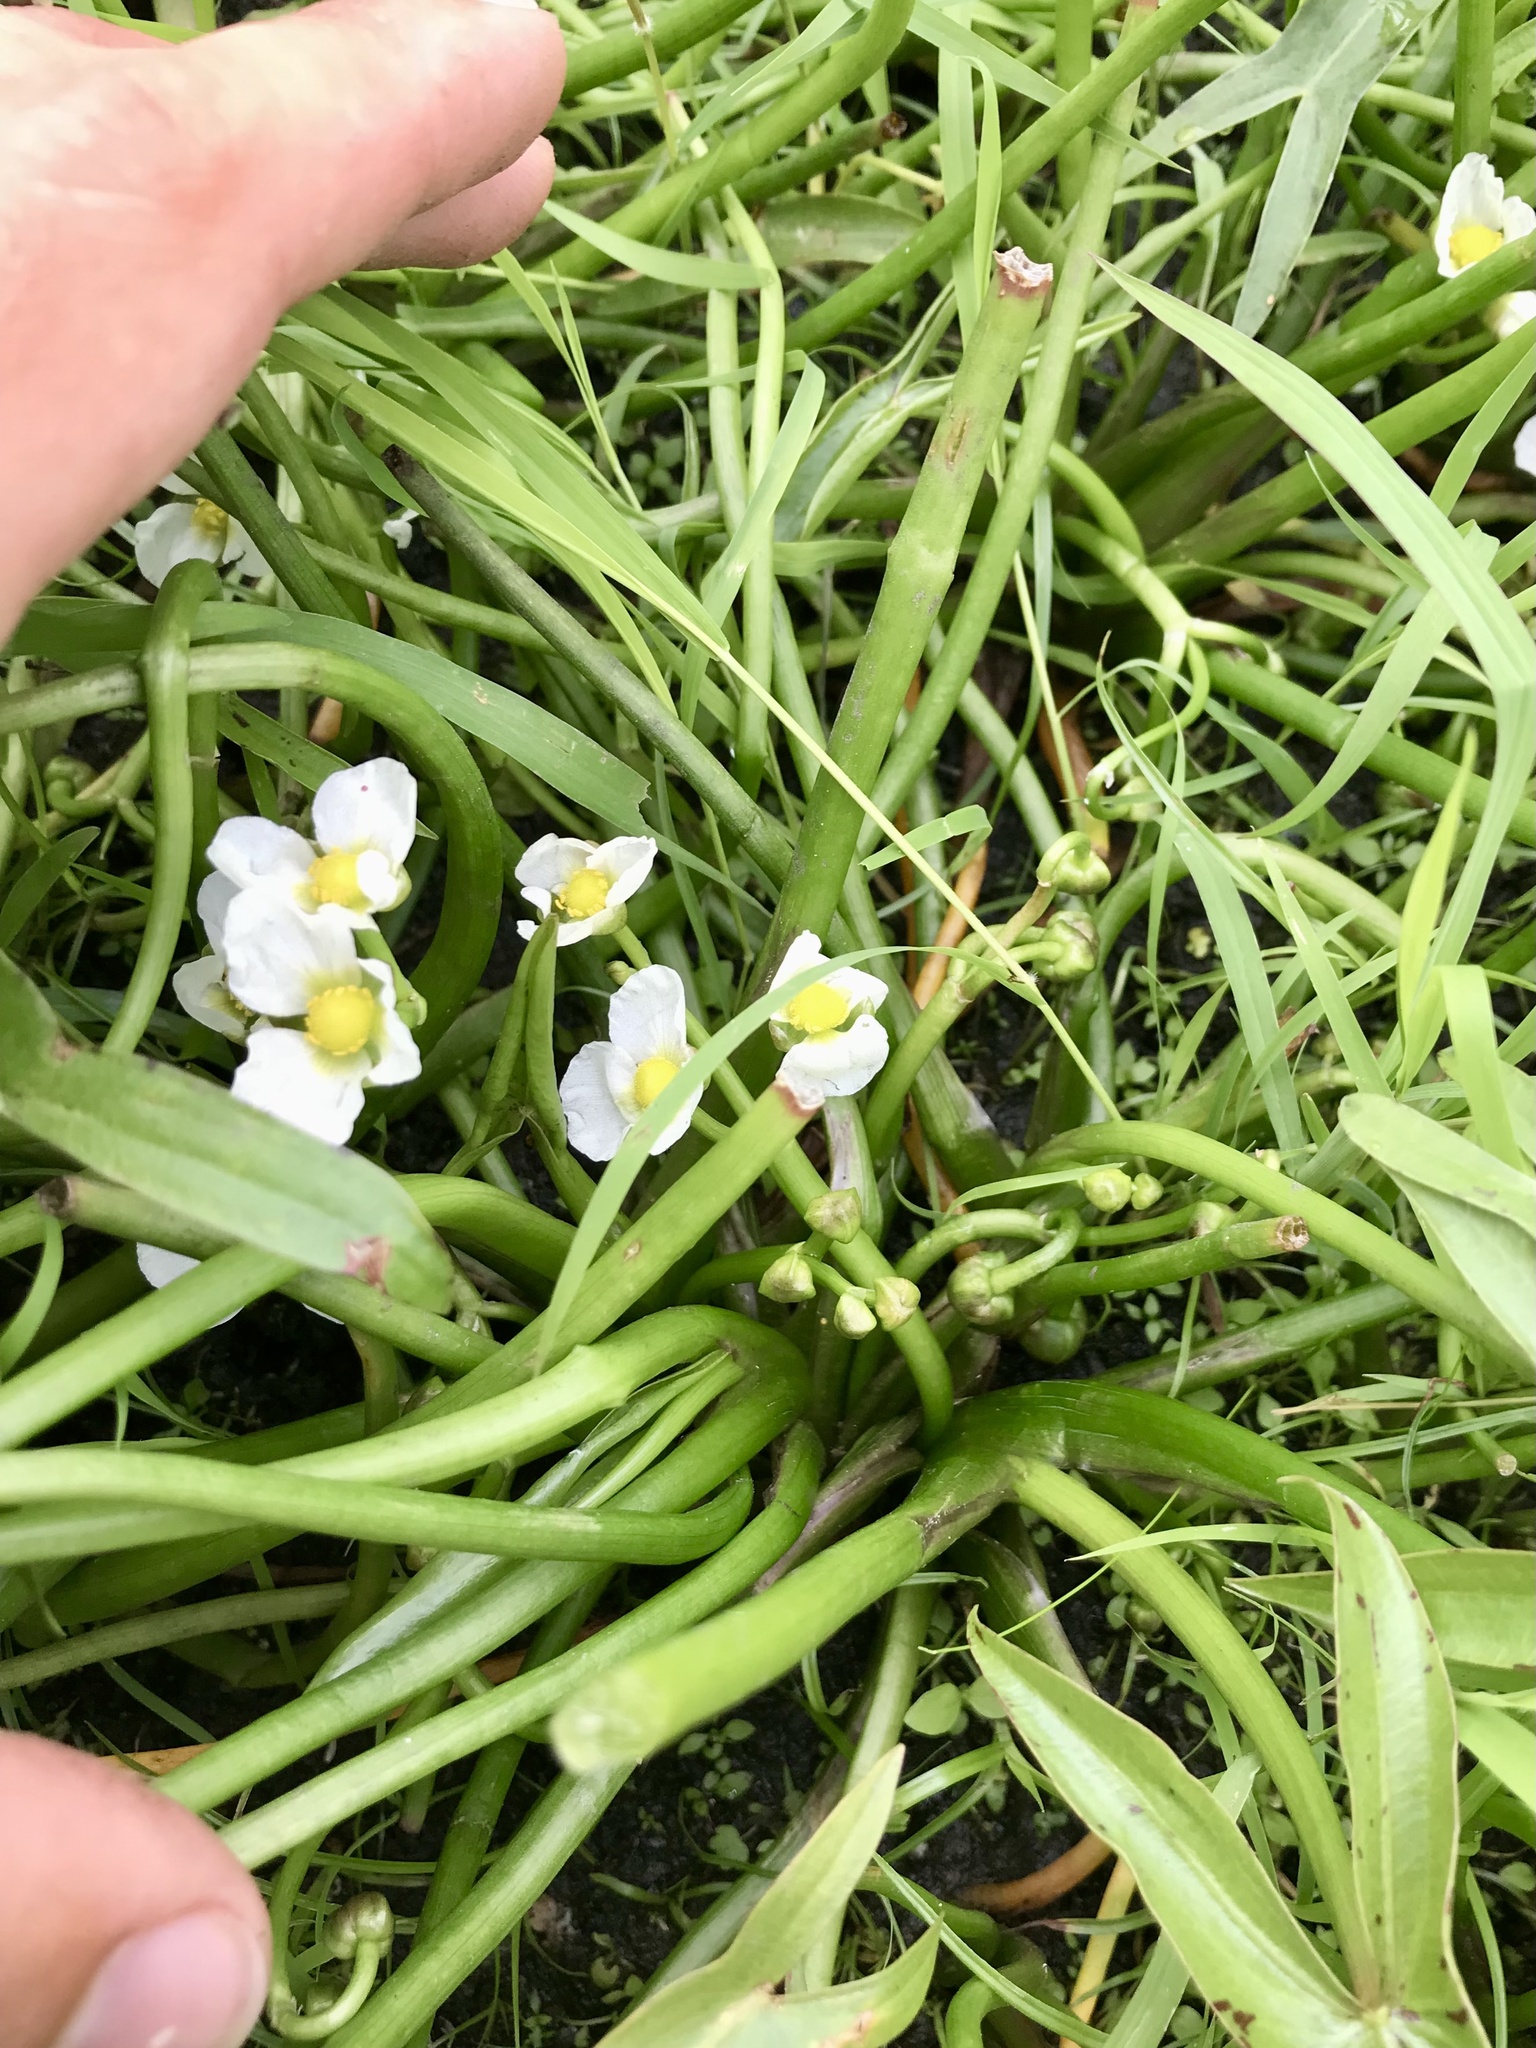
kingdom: Plantae
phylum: Tracheophyta
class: Liliopsida
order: Alismatales
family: Alismataceae
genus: Sagittaria
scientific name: Sagittaria calycina
